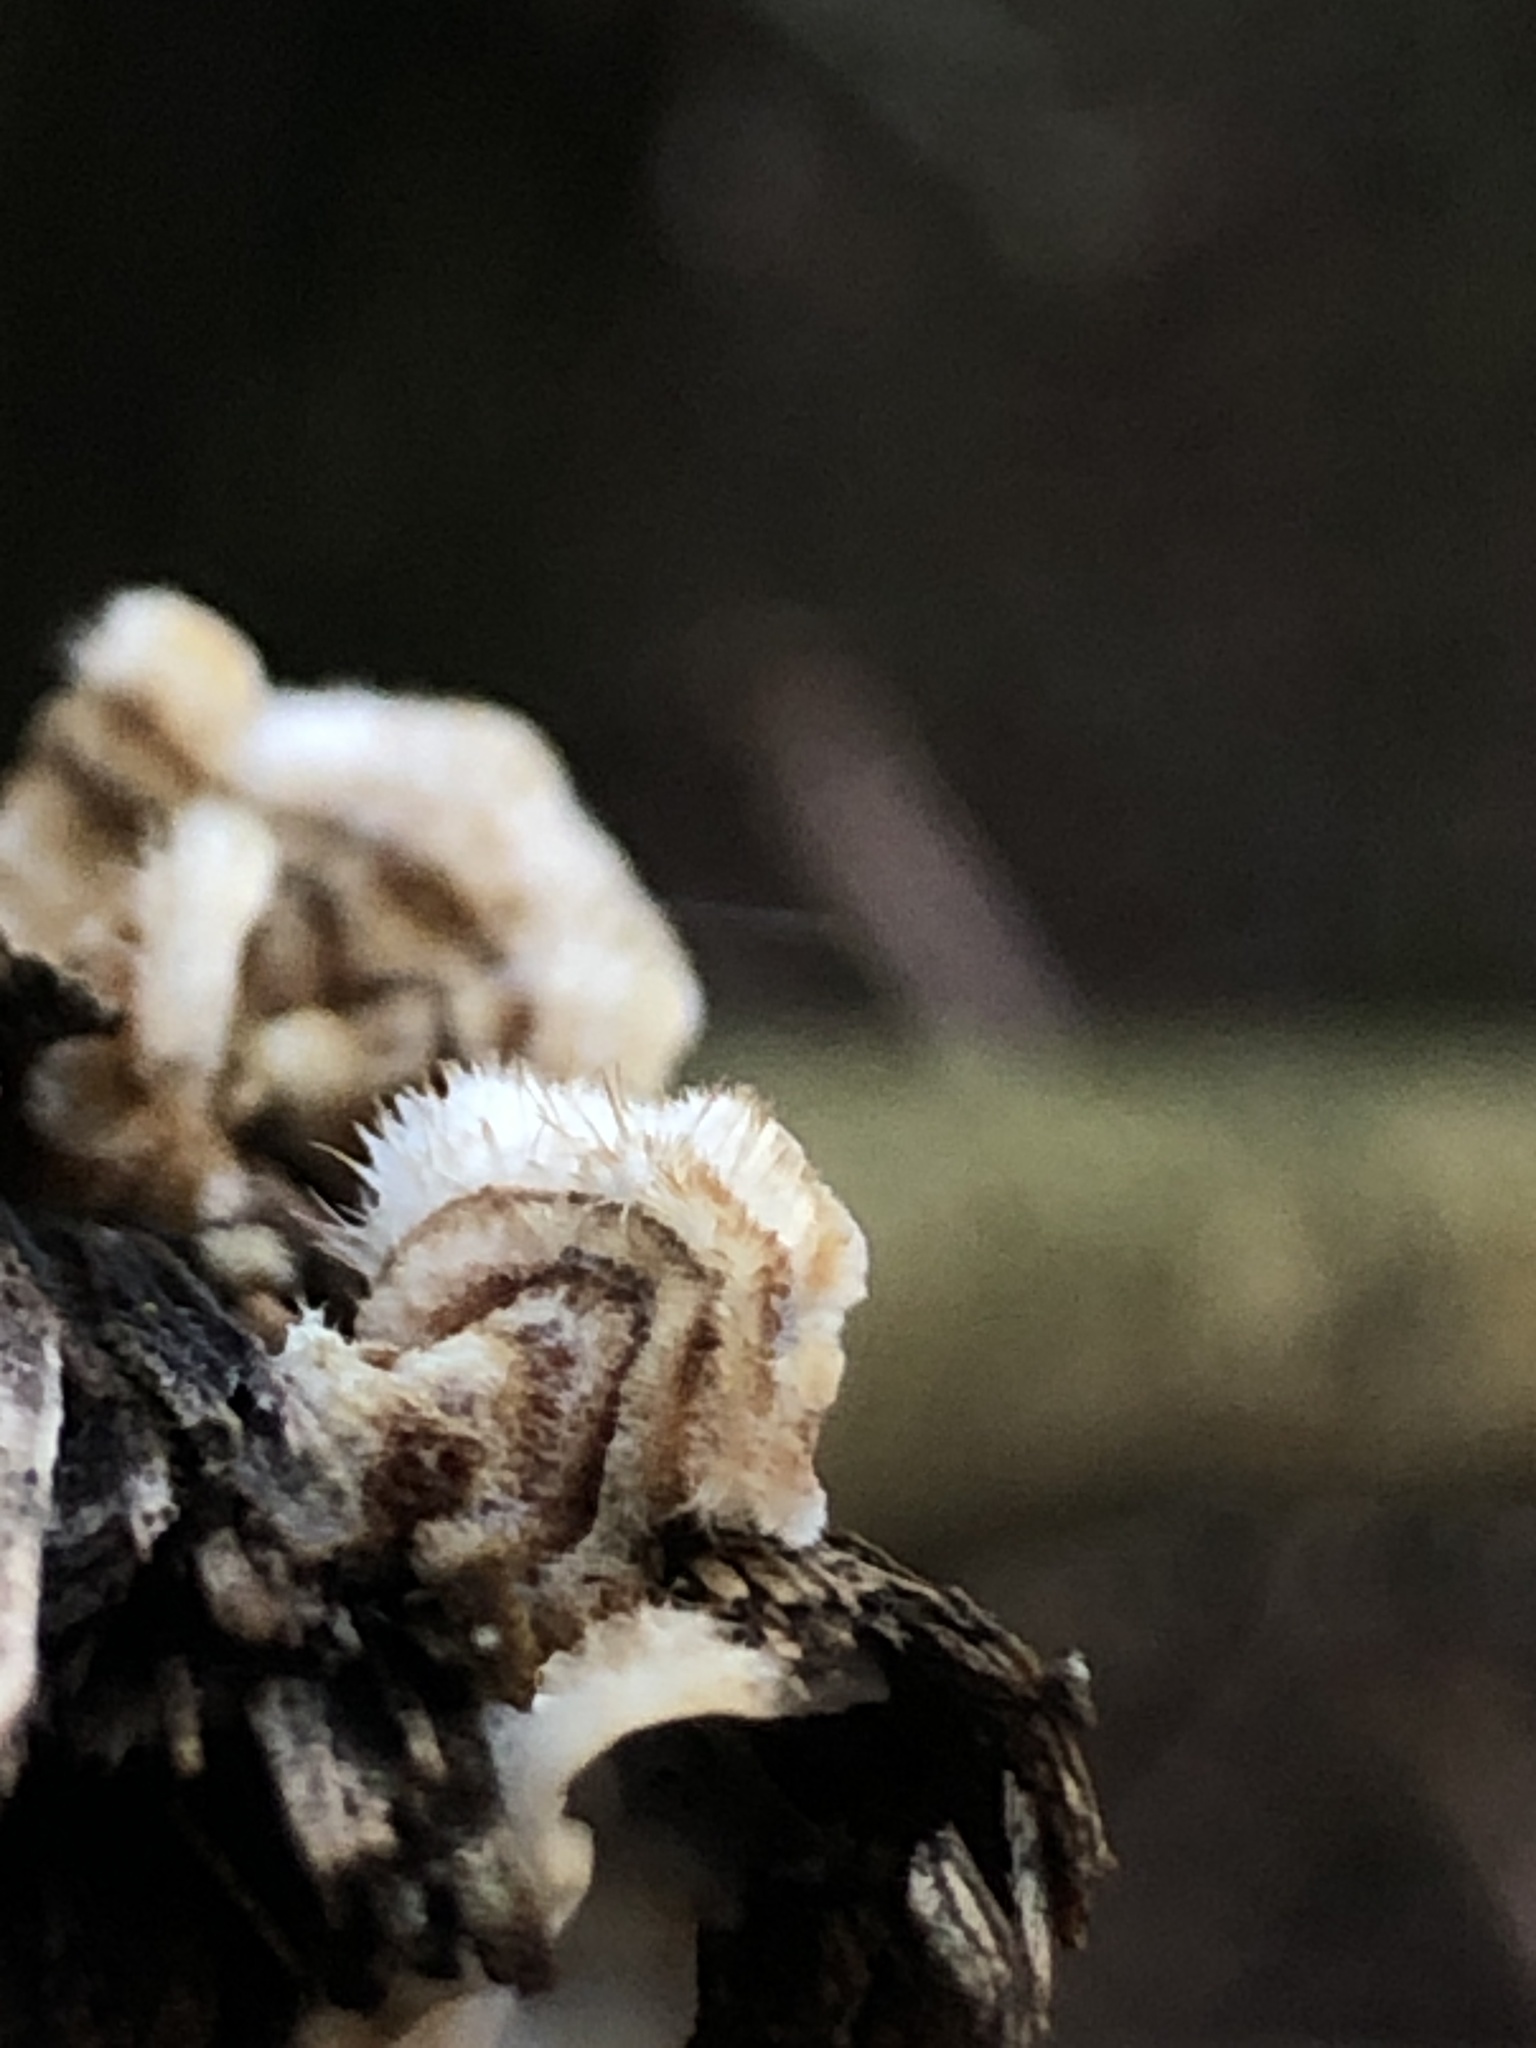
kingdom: Fungi
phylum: Basidiomycota
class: Agaricomycetes
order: Russulales
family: Stereaceae
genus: Stereum
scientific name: Stereum hirsutum
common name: Hairy curtain crust
